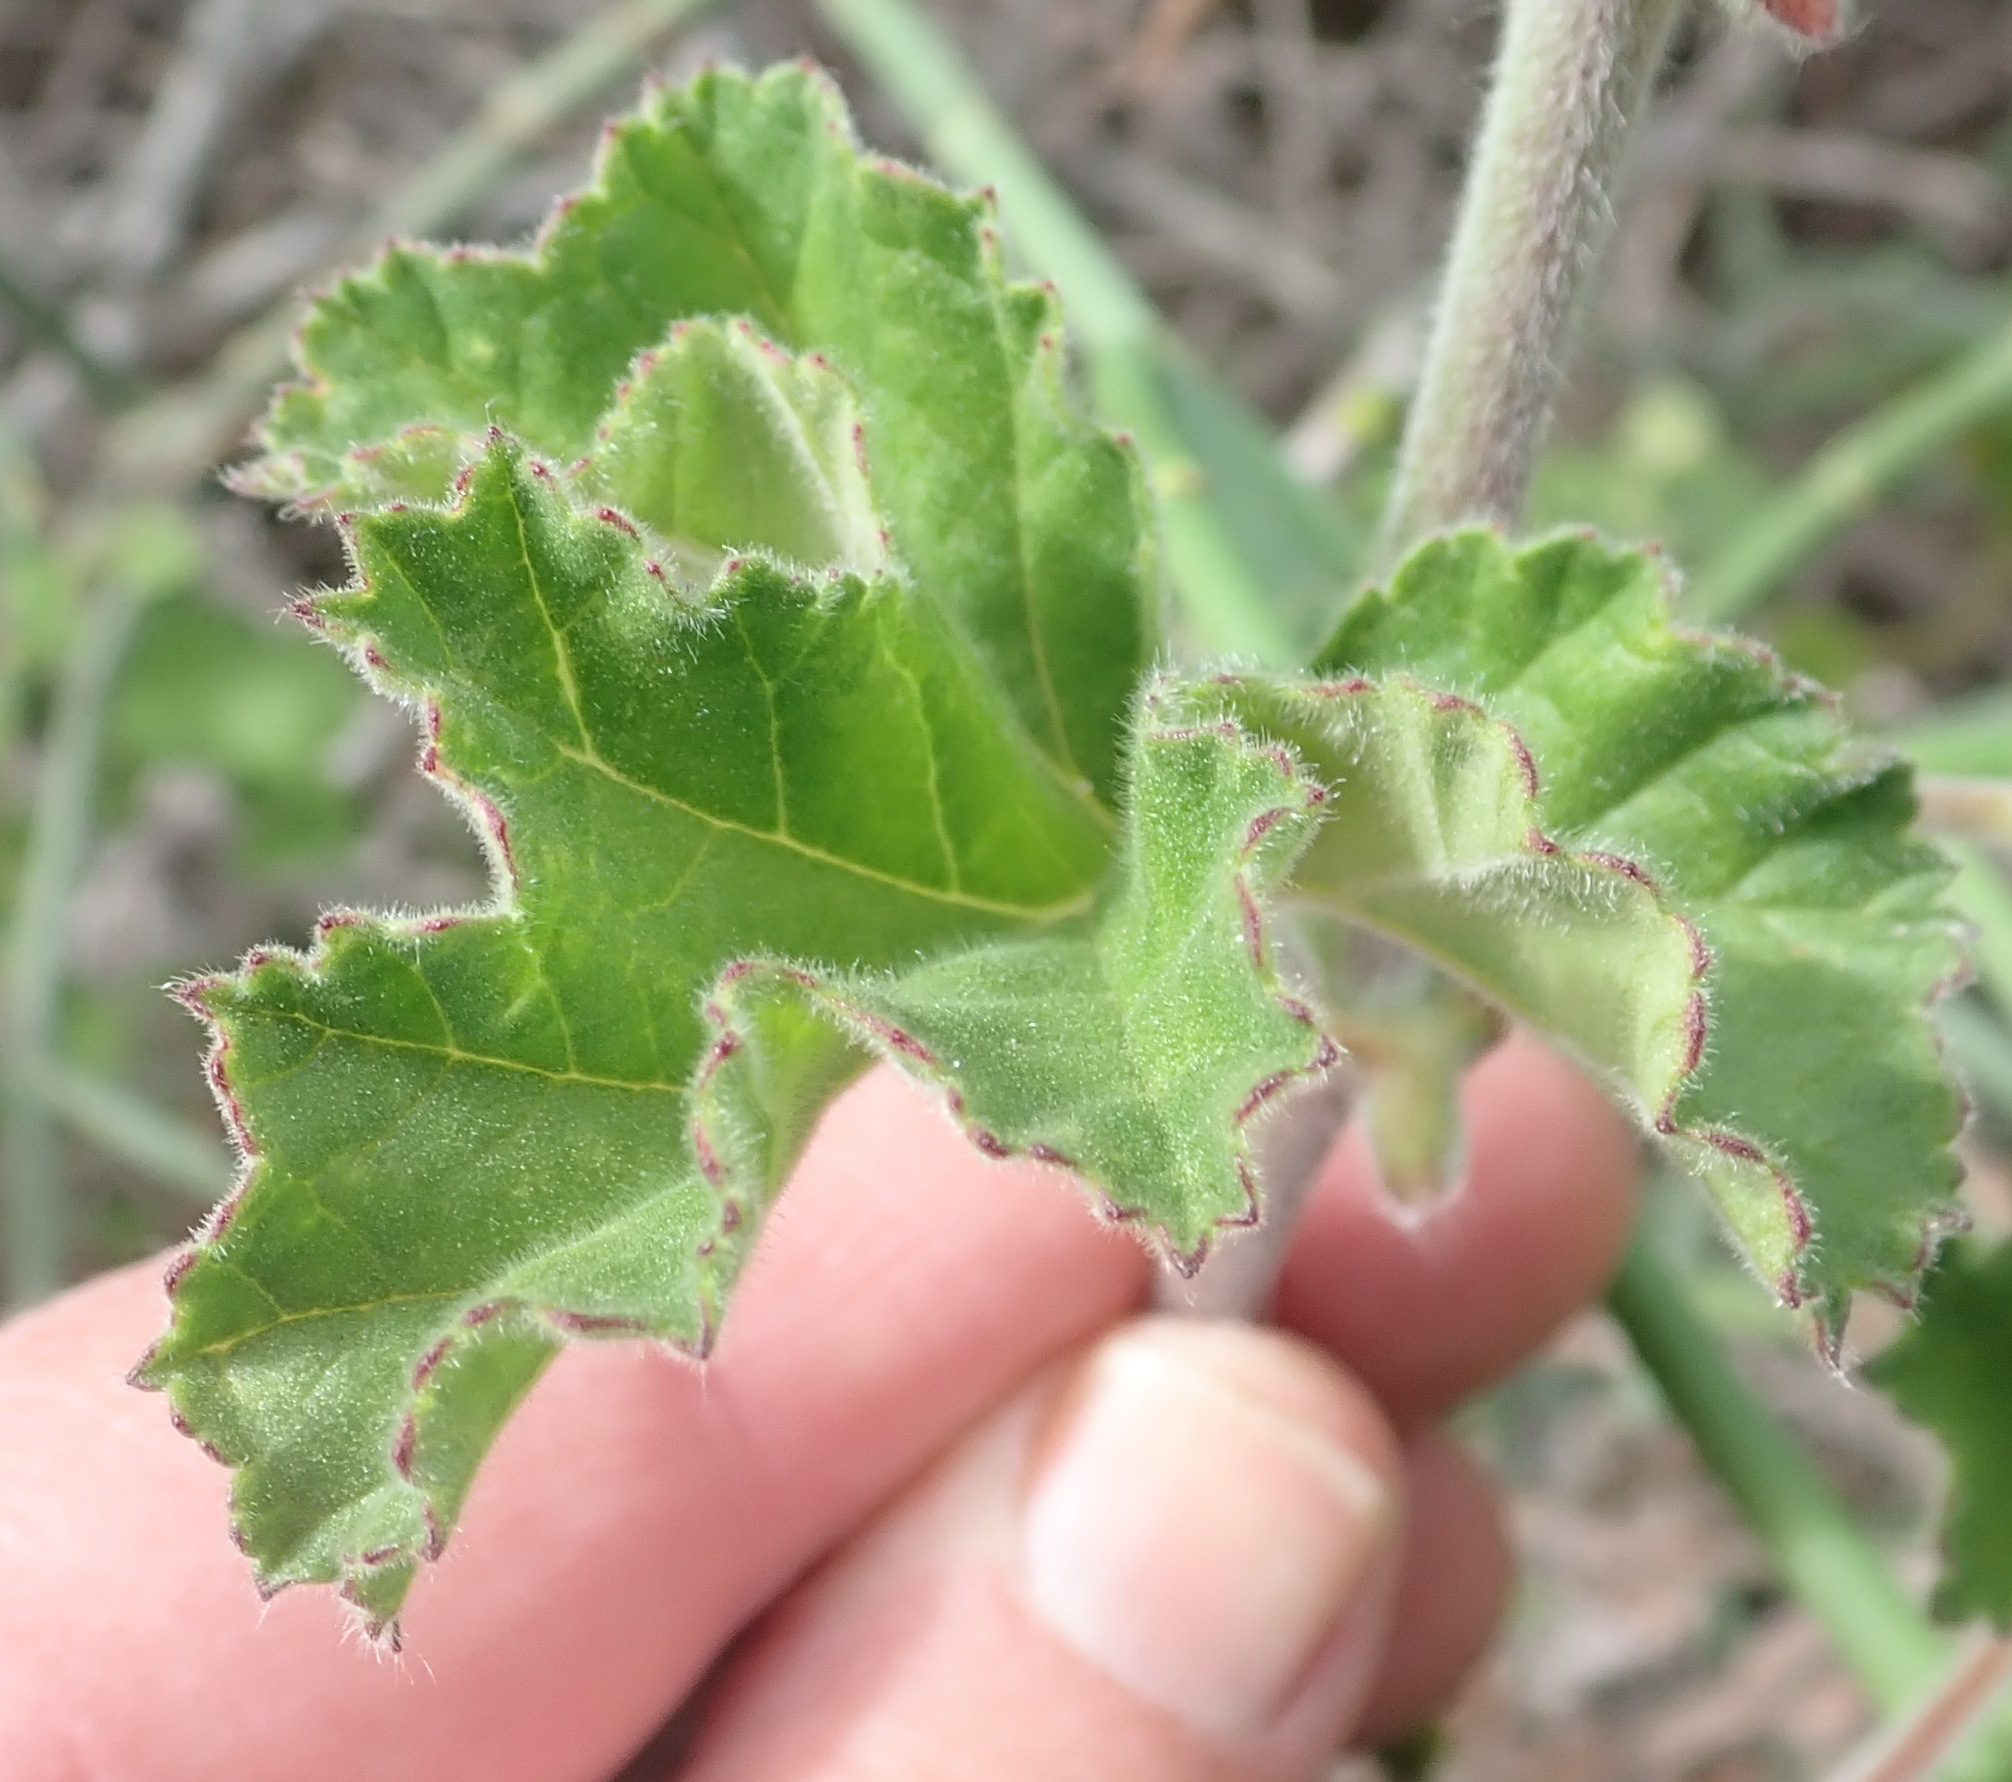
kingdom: Plantae
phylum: Tracheophyta
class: Magnoliopsida
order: Geraniales
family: Geraniaceae
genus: Pelargonium
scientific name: Pelargonium capitatum
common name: Rose scented geranium
